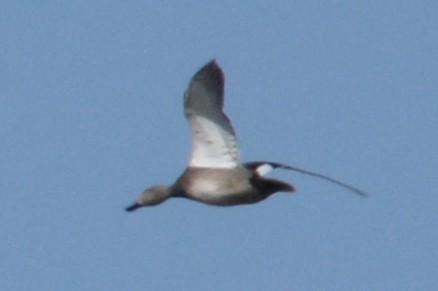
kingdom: Animalia
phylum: Chordata
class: Aves
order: Anseriformes
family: Anatidae
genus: Mareca
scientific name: Mareca strepera
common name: Gadwall
